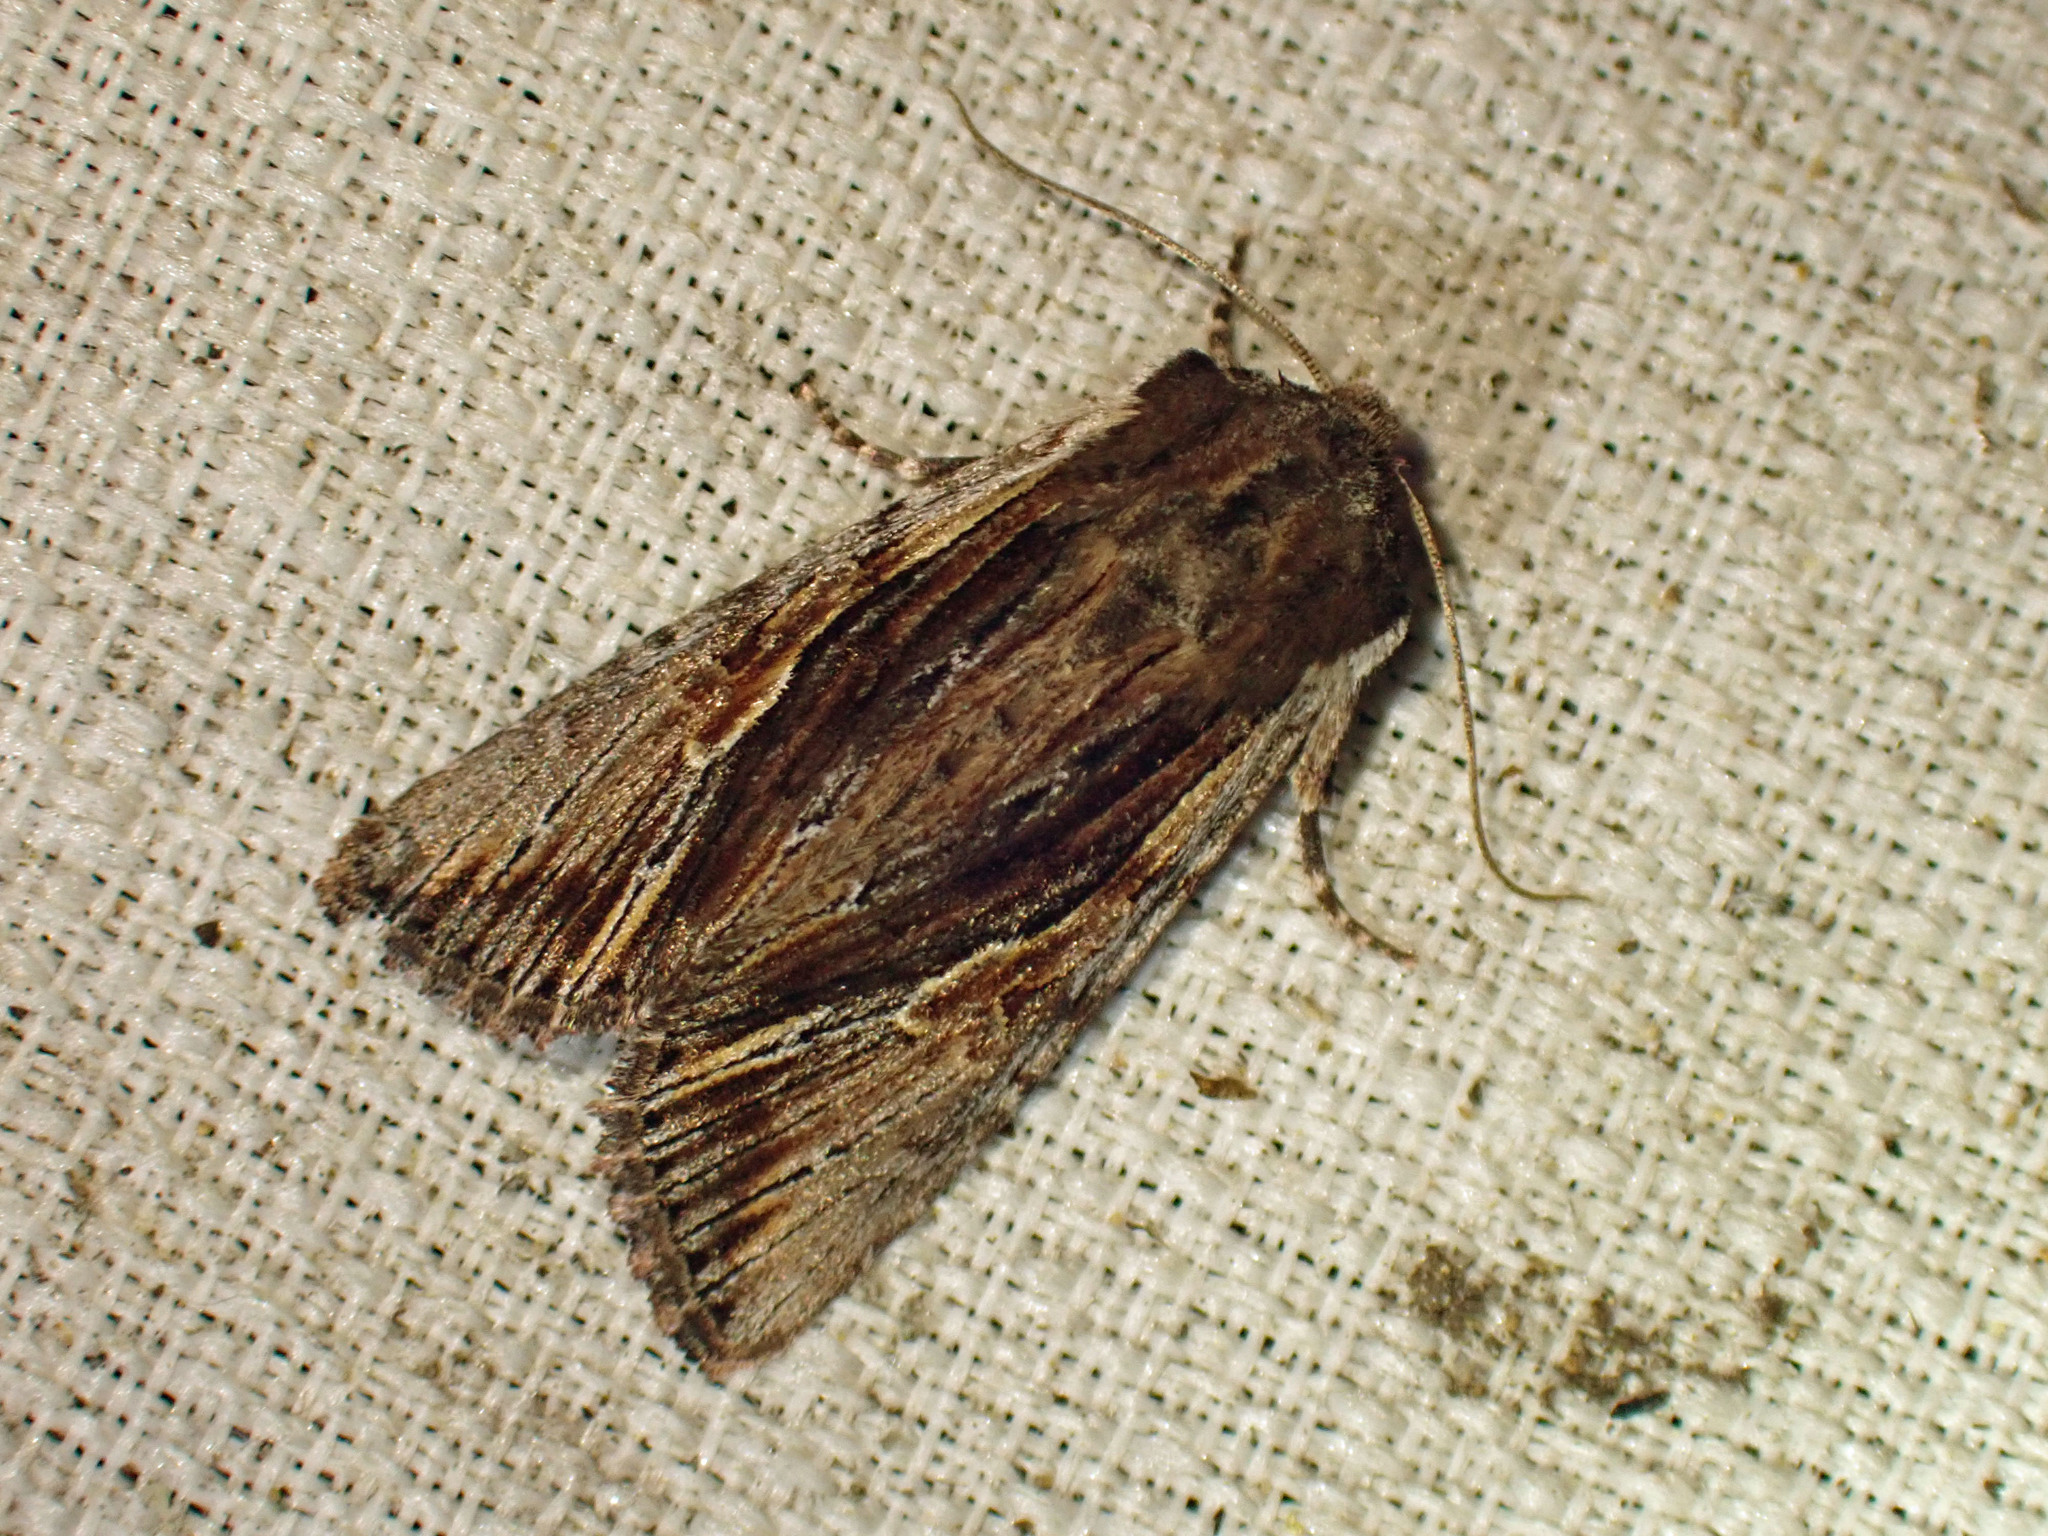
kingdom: Animalia
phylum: Arthropoda
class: Insecta
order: Lepidoptera
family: Noctuidae
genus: Achatia
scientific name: Achatia evicta
